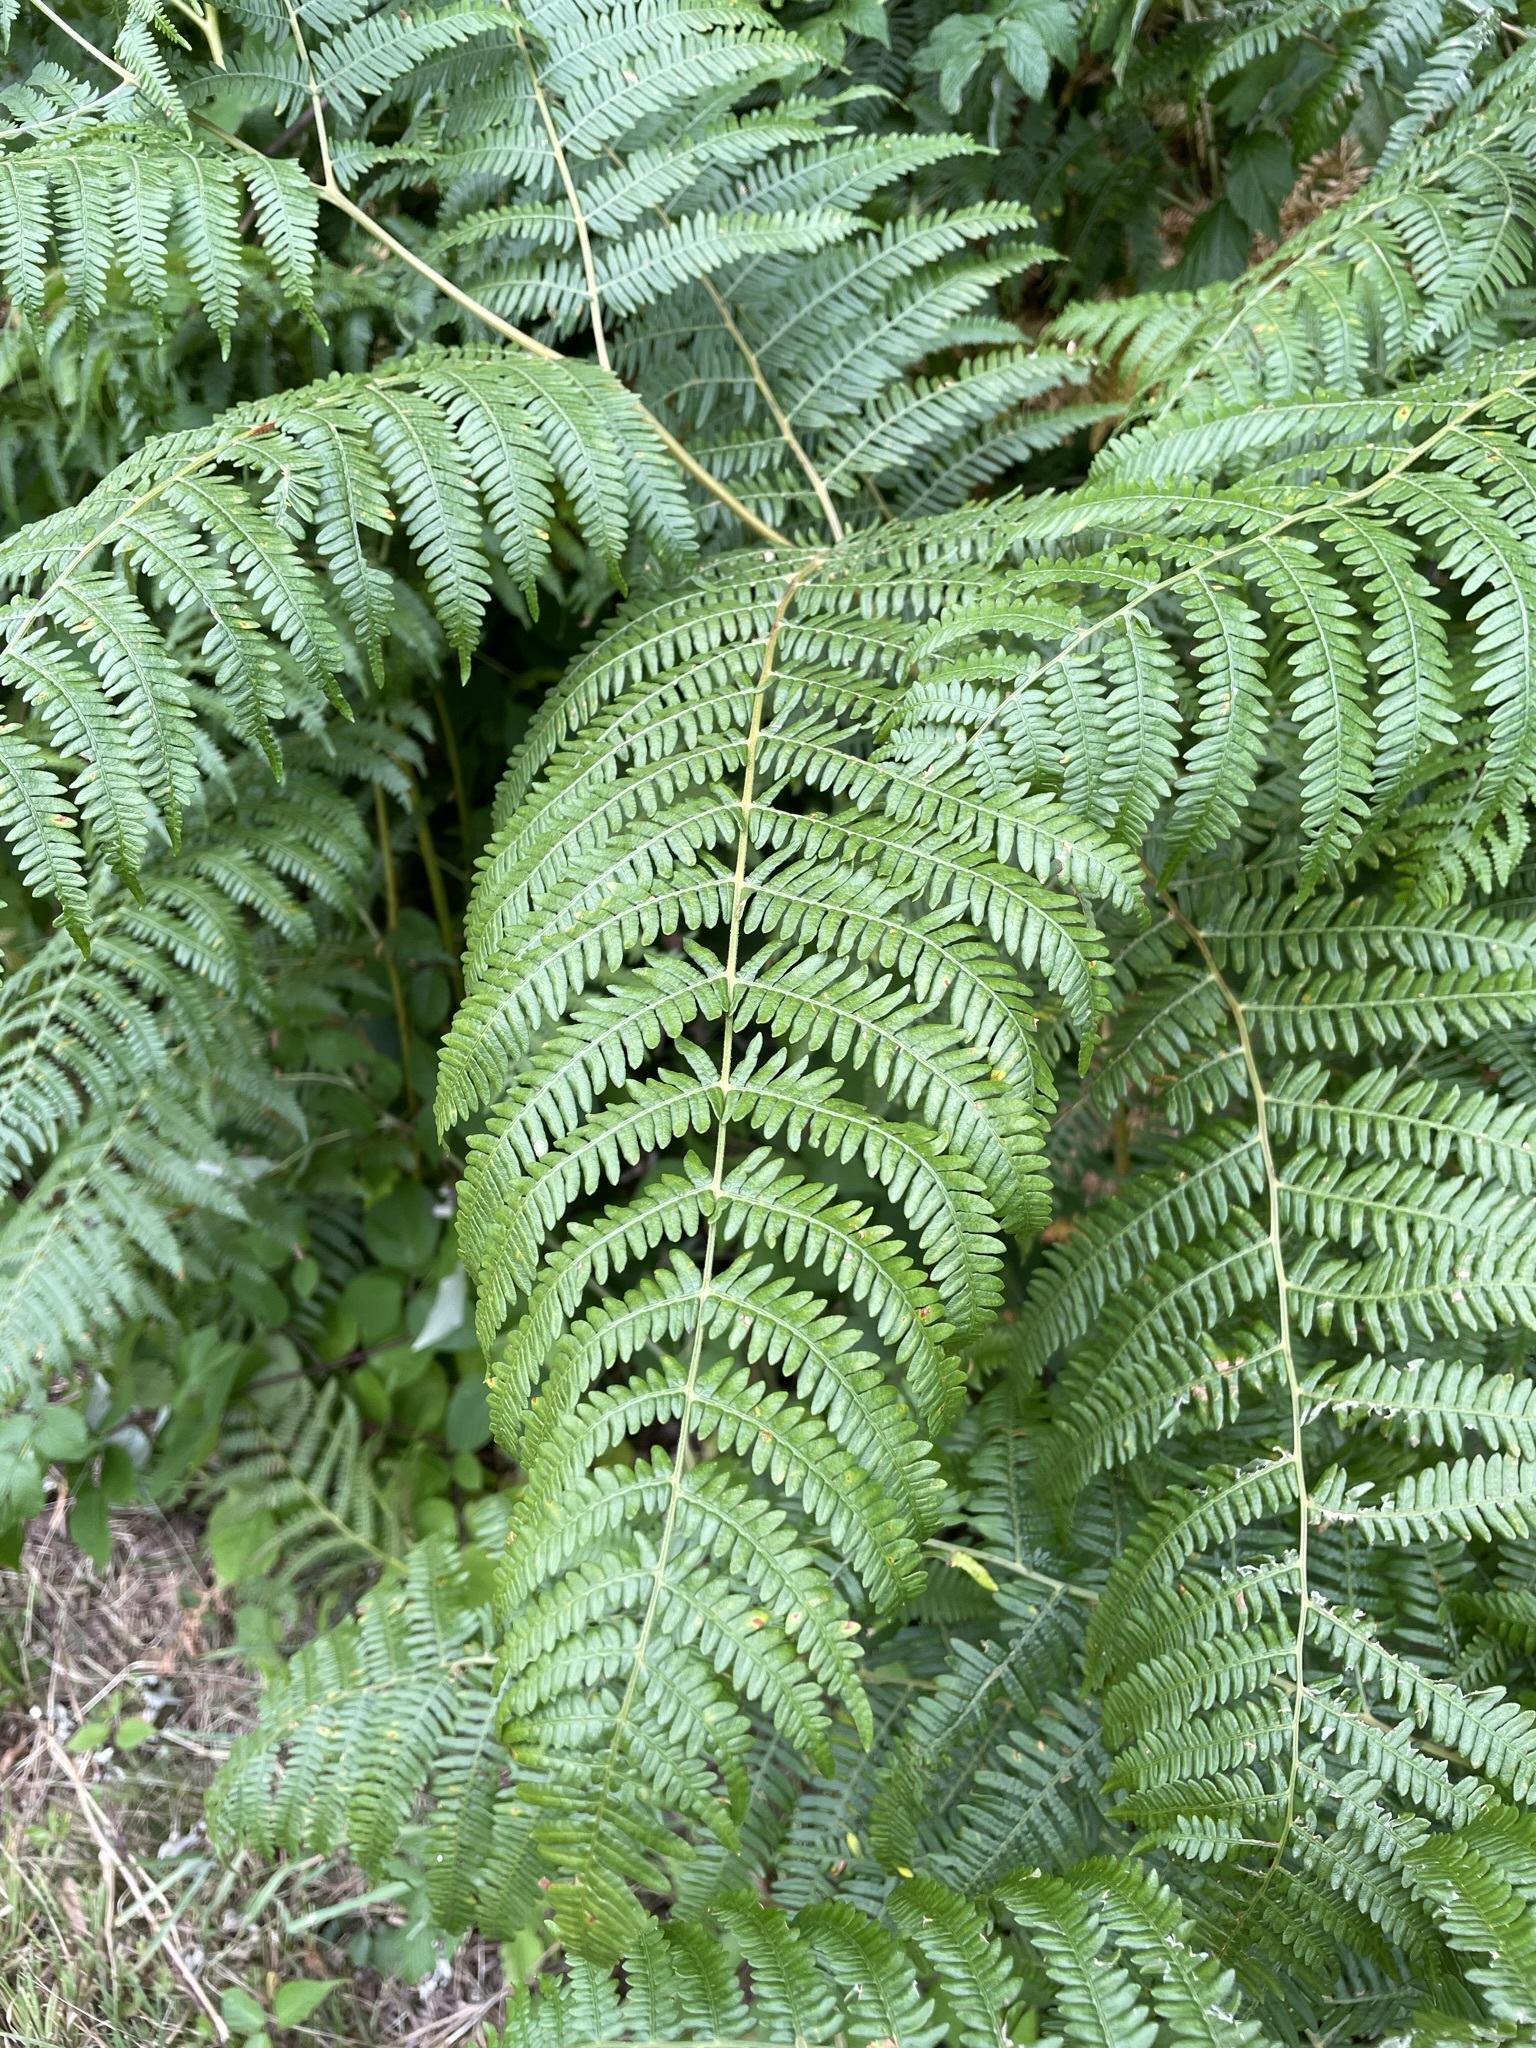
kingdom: Plantae
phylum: Tracheophyta
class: Polypodiopsida
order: Polypodiales
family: Dennstaedtiaceae
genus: Pteridium
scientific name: Pteridium aquilinum
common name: Bracken
